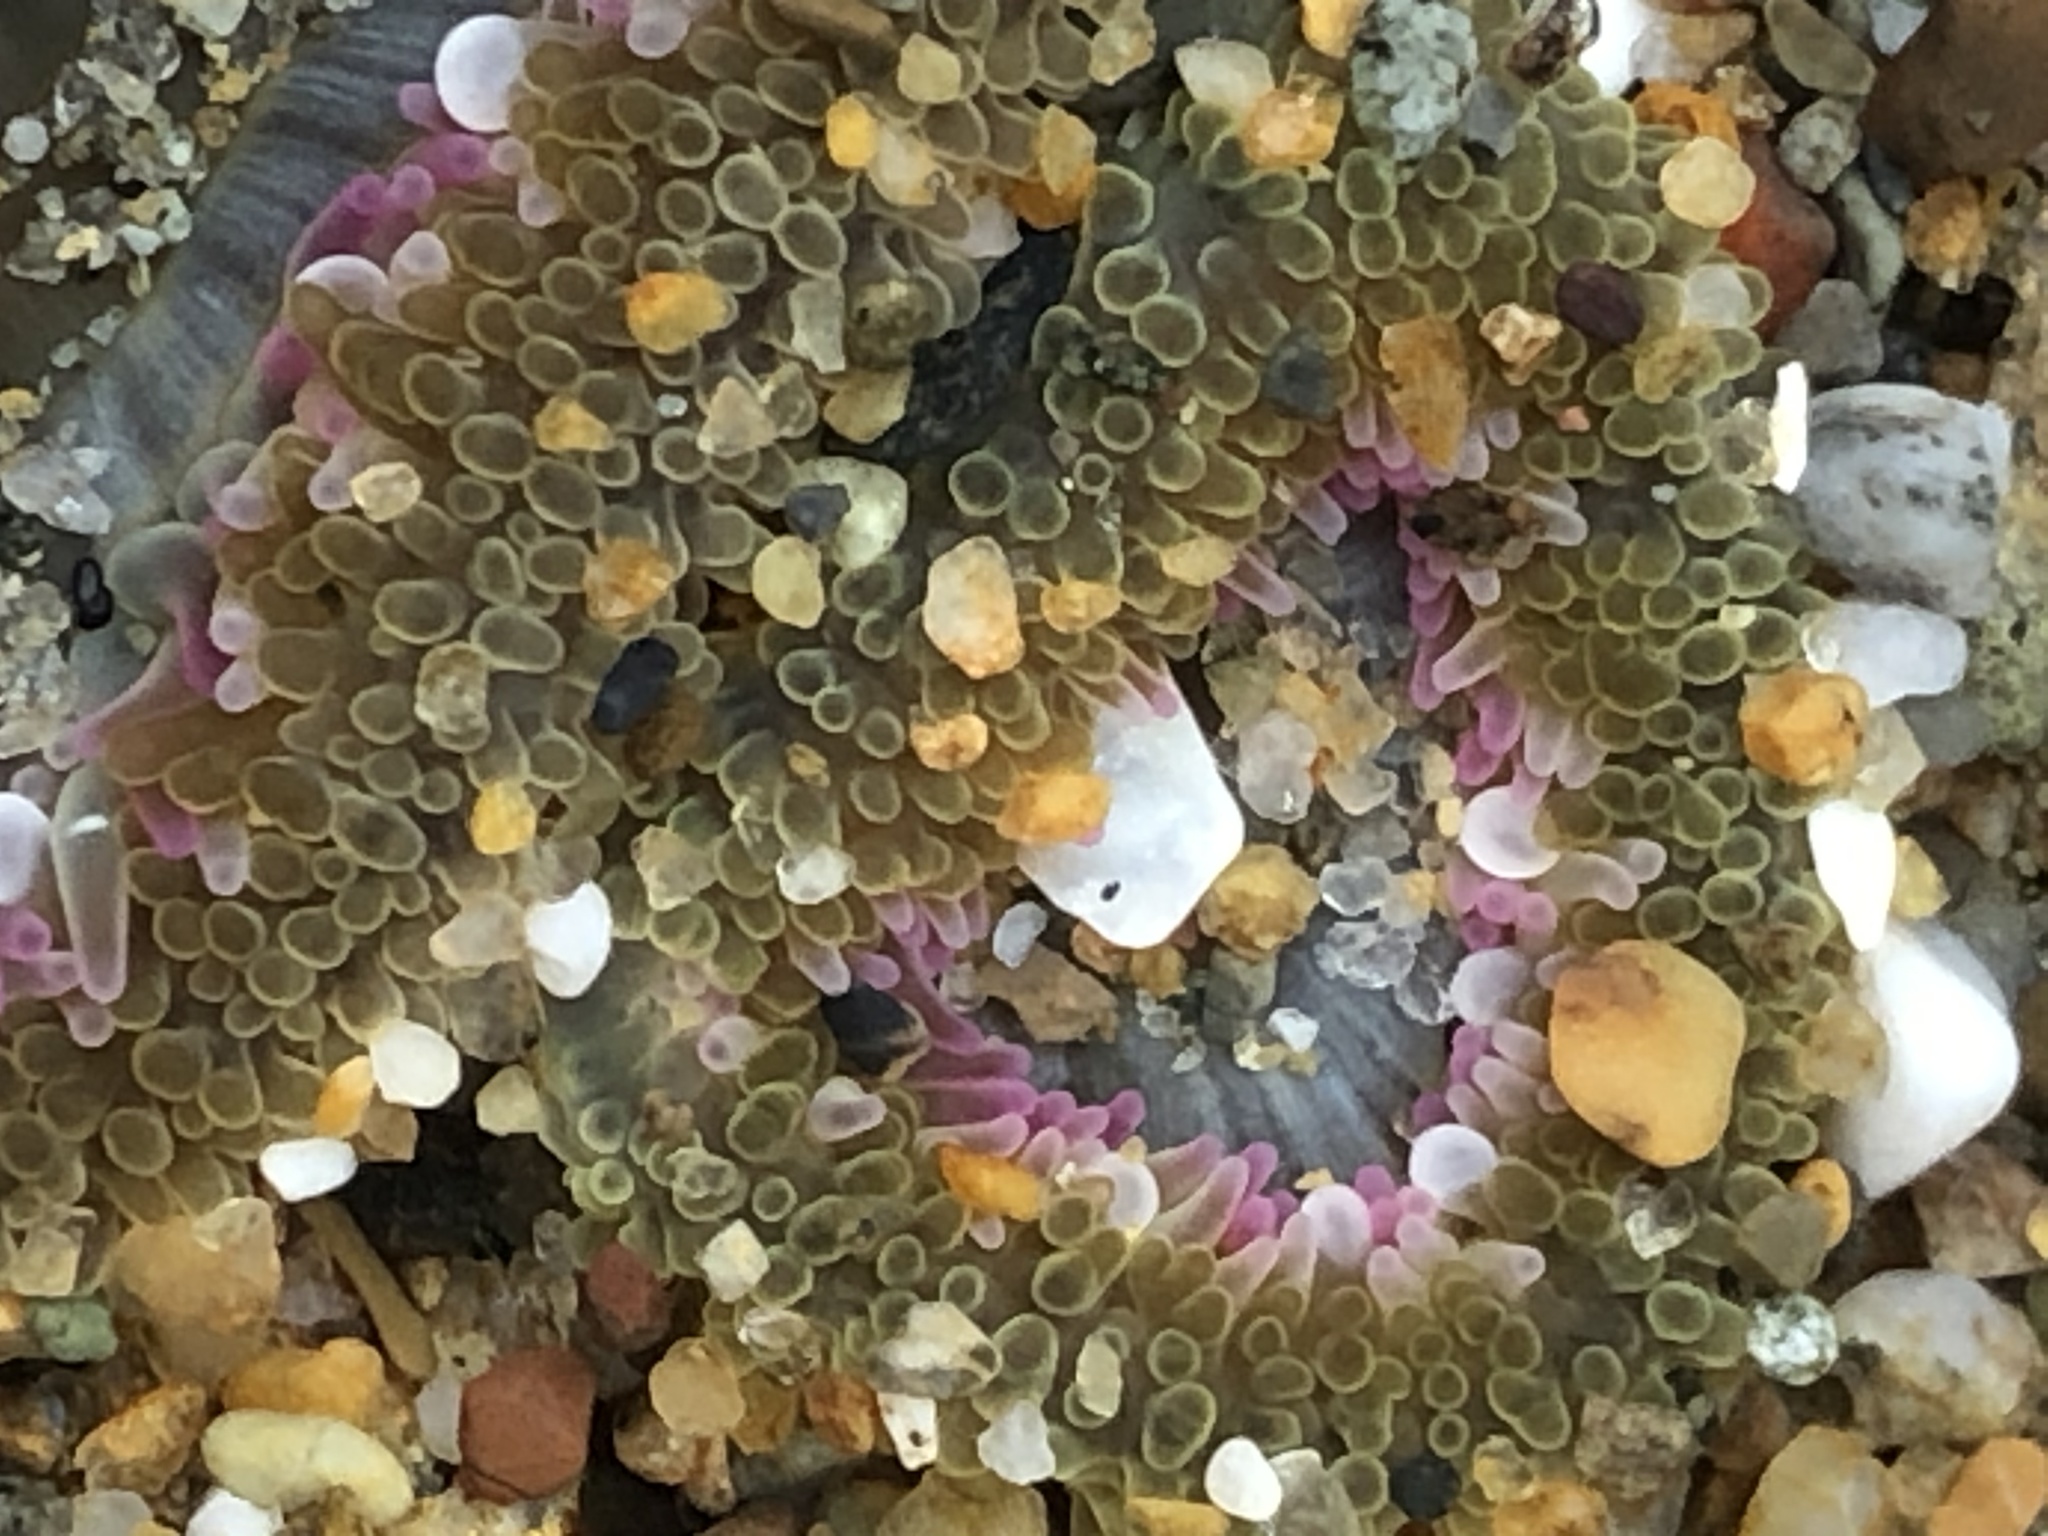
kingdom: Animalia
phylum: Cnidaria
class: Anthozoa
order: Actiniaria
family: Actiniidae
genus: Anthopleura
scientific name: Anthopleura elegantissima
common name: Clonal anemone
